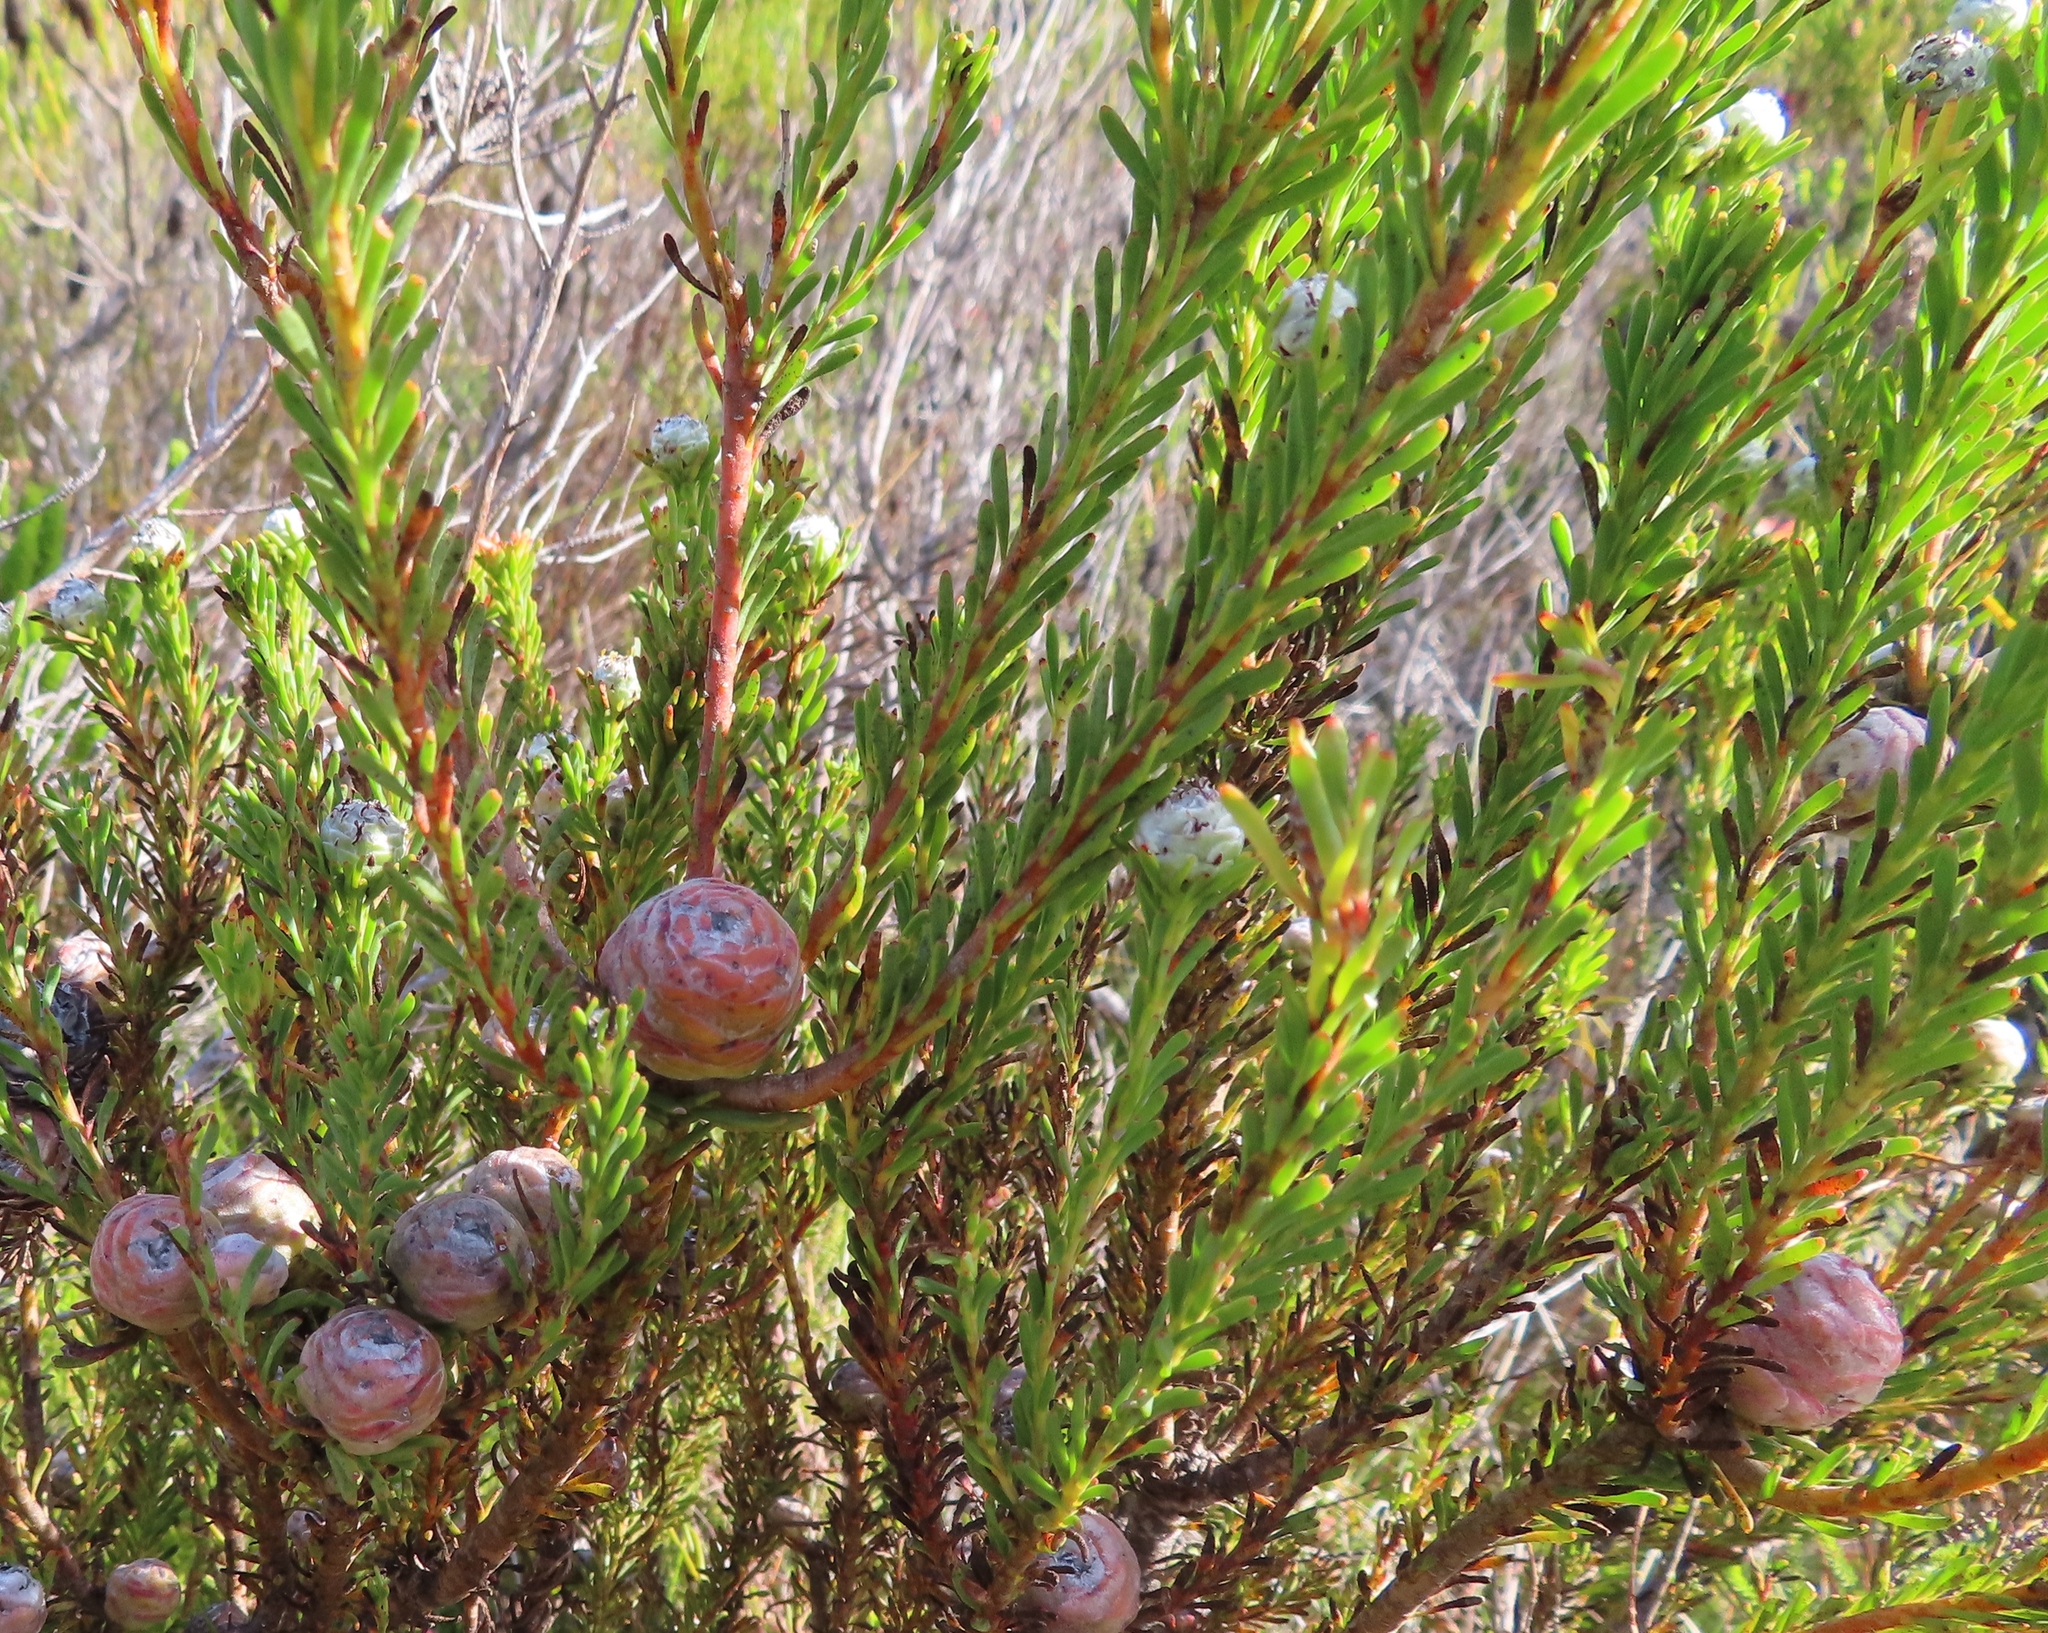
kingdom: Plantae
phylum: Tracheophyta
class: Magnoliopsida
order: Proteales
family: Proteaceae
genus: Leucadendron
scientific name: Leucadendron linifolium
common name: Line-leaf conebush
